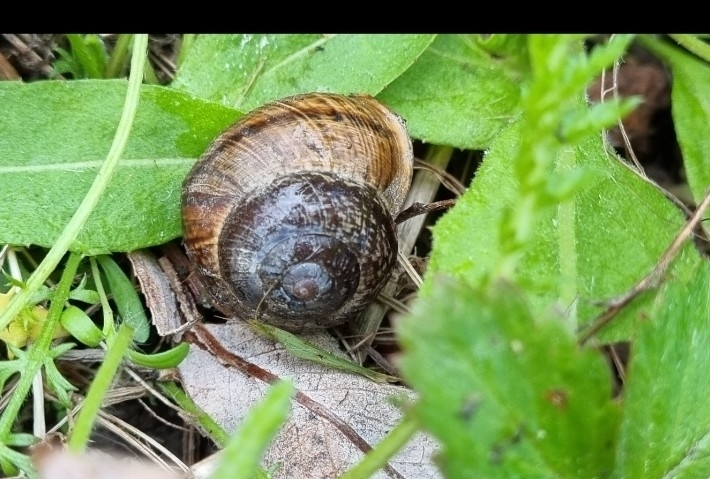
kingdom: Animalia
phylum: Mollusca
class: Gastropoda
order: Stylommatophora
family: Helicidae
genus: Arianta
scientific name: Arianta arbustorum
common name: Copse snail
